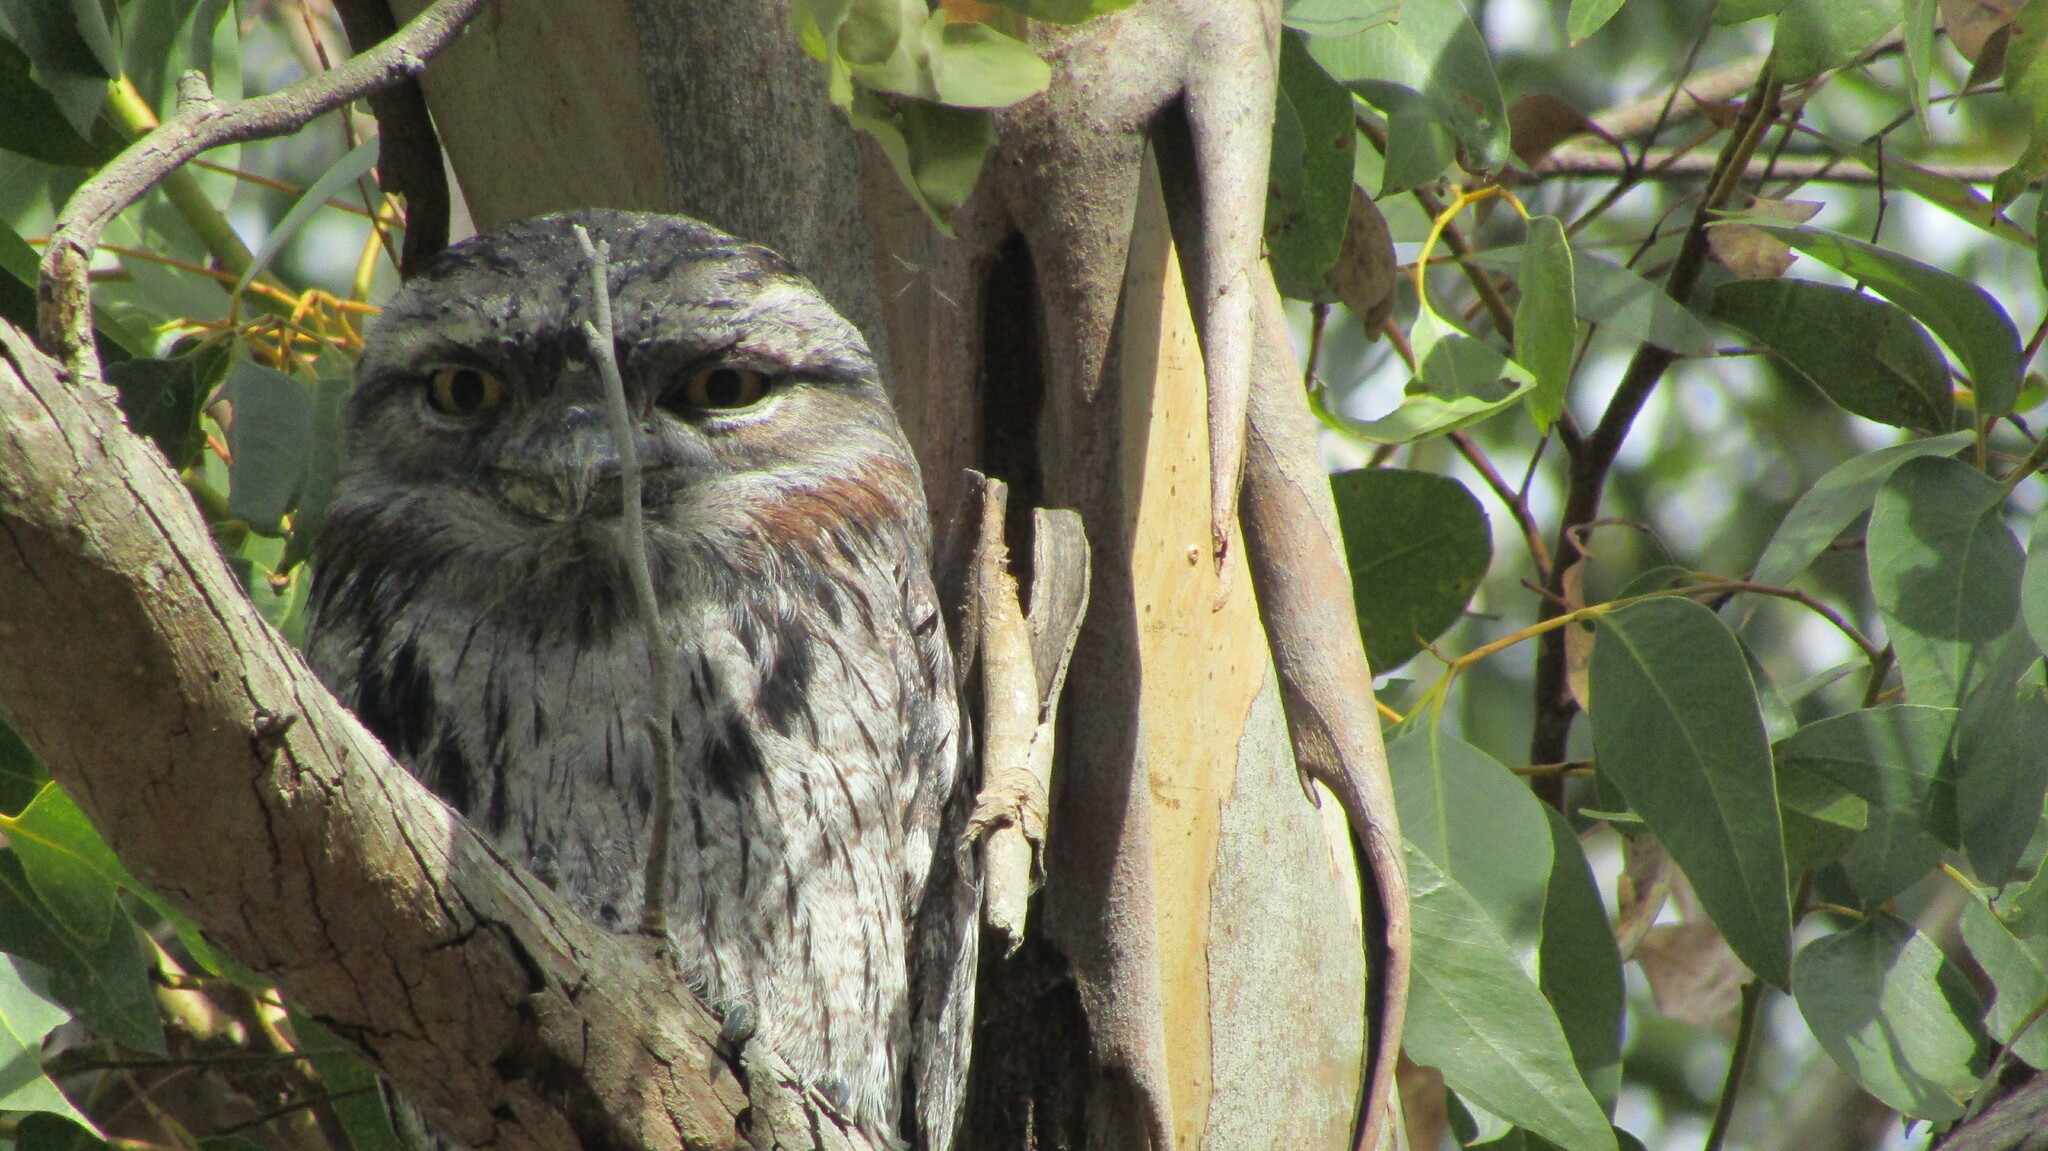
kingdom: Animalia
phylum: Chordata
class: Aves
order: Caprimulgiformes
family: Podargidae
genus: Podargus
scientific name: Podargus strigoides
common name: Tawny frogmouth
